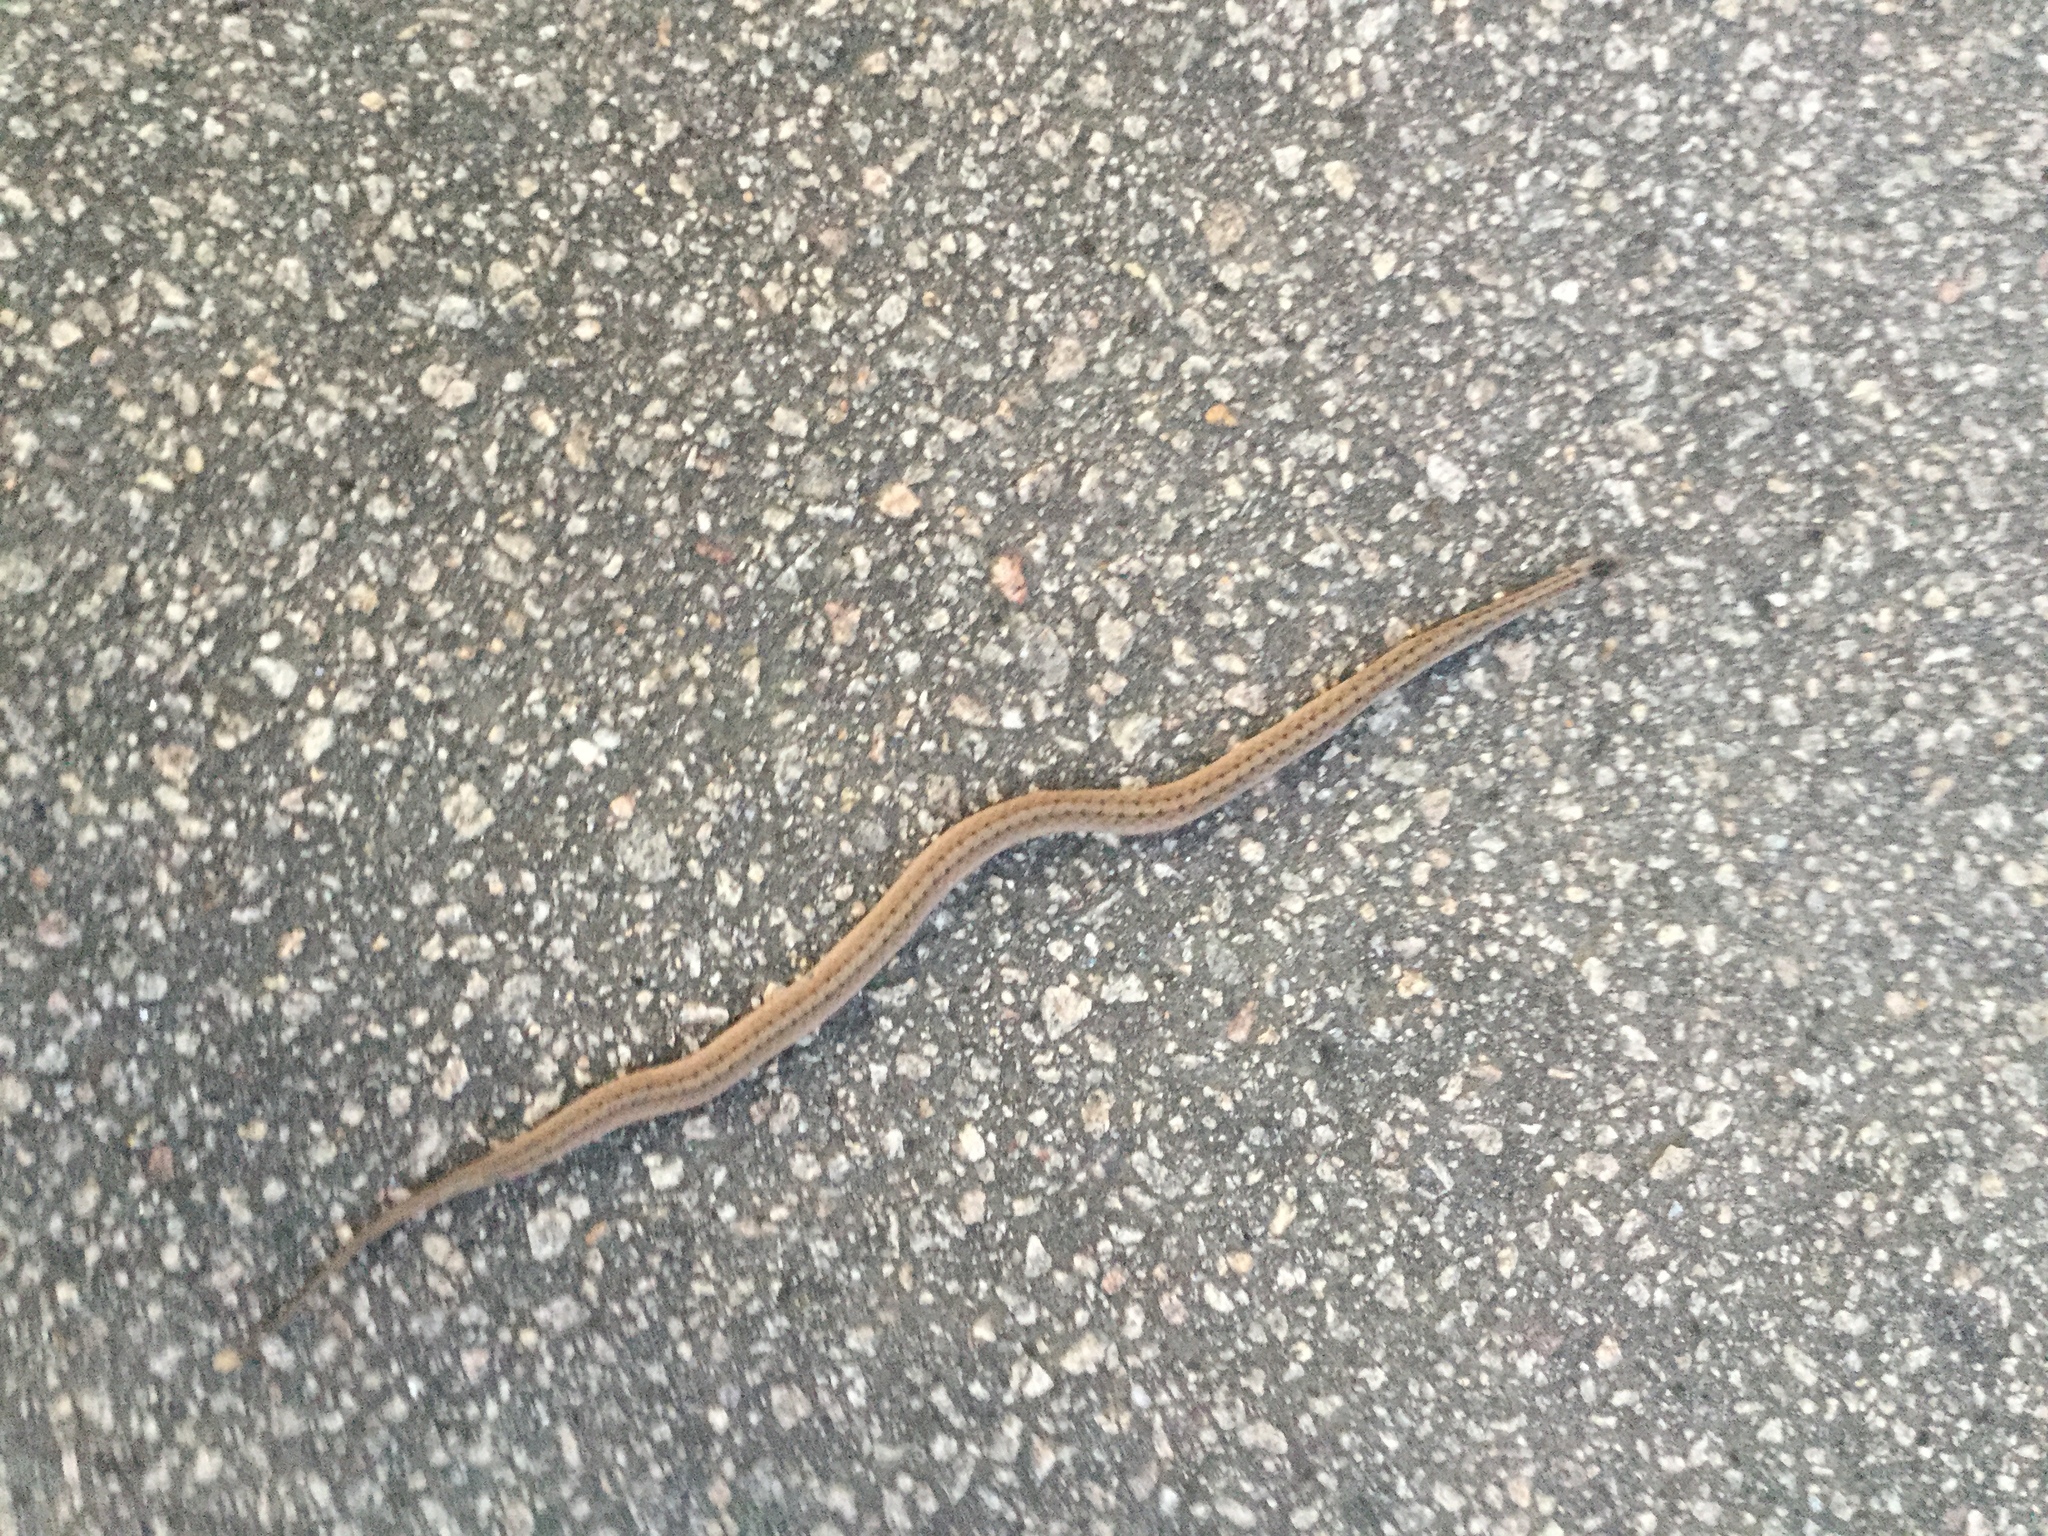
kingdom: Animalia
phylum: Chordata
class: Squamata
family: Colubridae
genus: Storeria
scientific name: Storeria dekayi
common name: (dekay’s) brown snake
